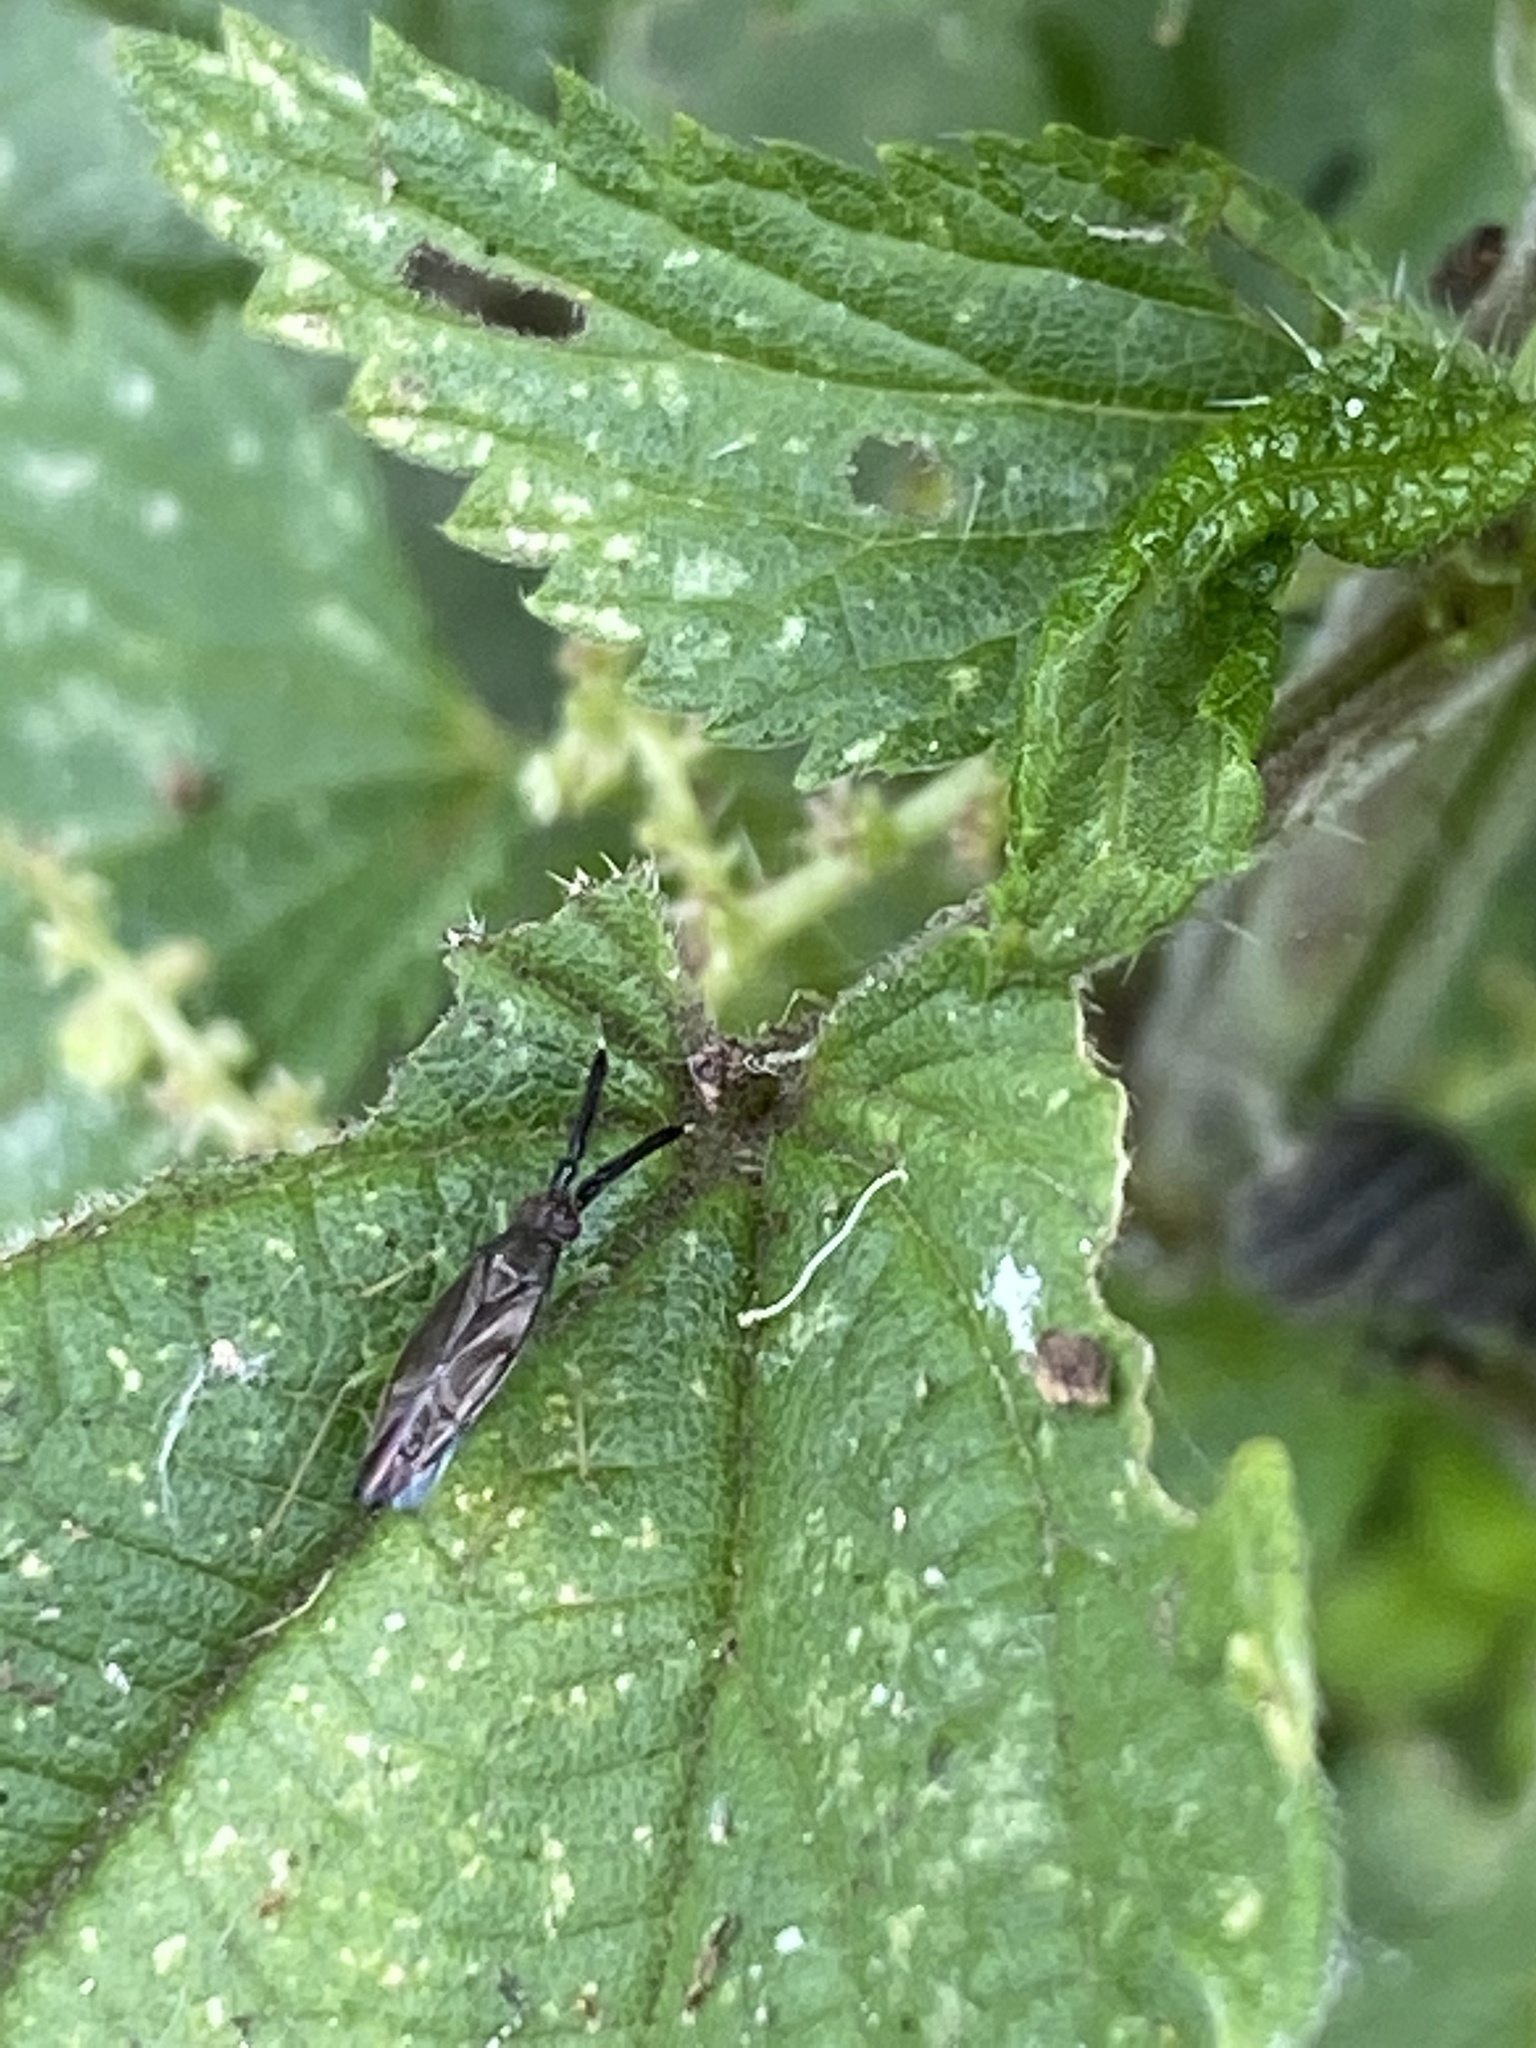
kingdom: Animalia
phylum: Arthropoda
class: Insecta
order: Hemiptera
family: Miridae
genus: Heterotoma
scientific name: Heterotoma planicornis
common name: Plant bug
